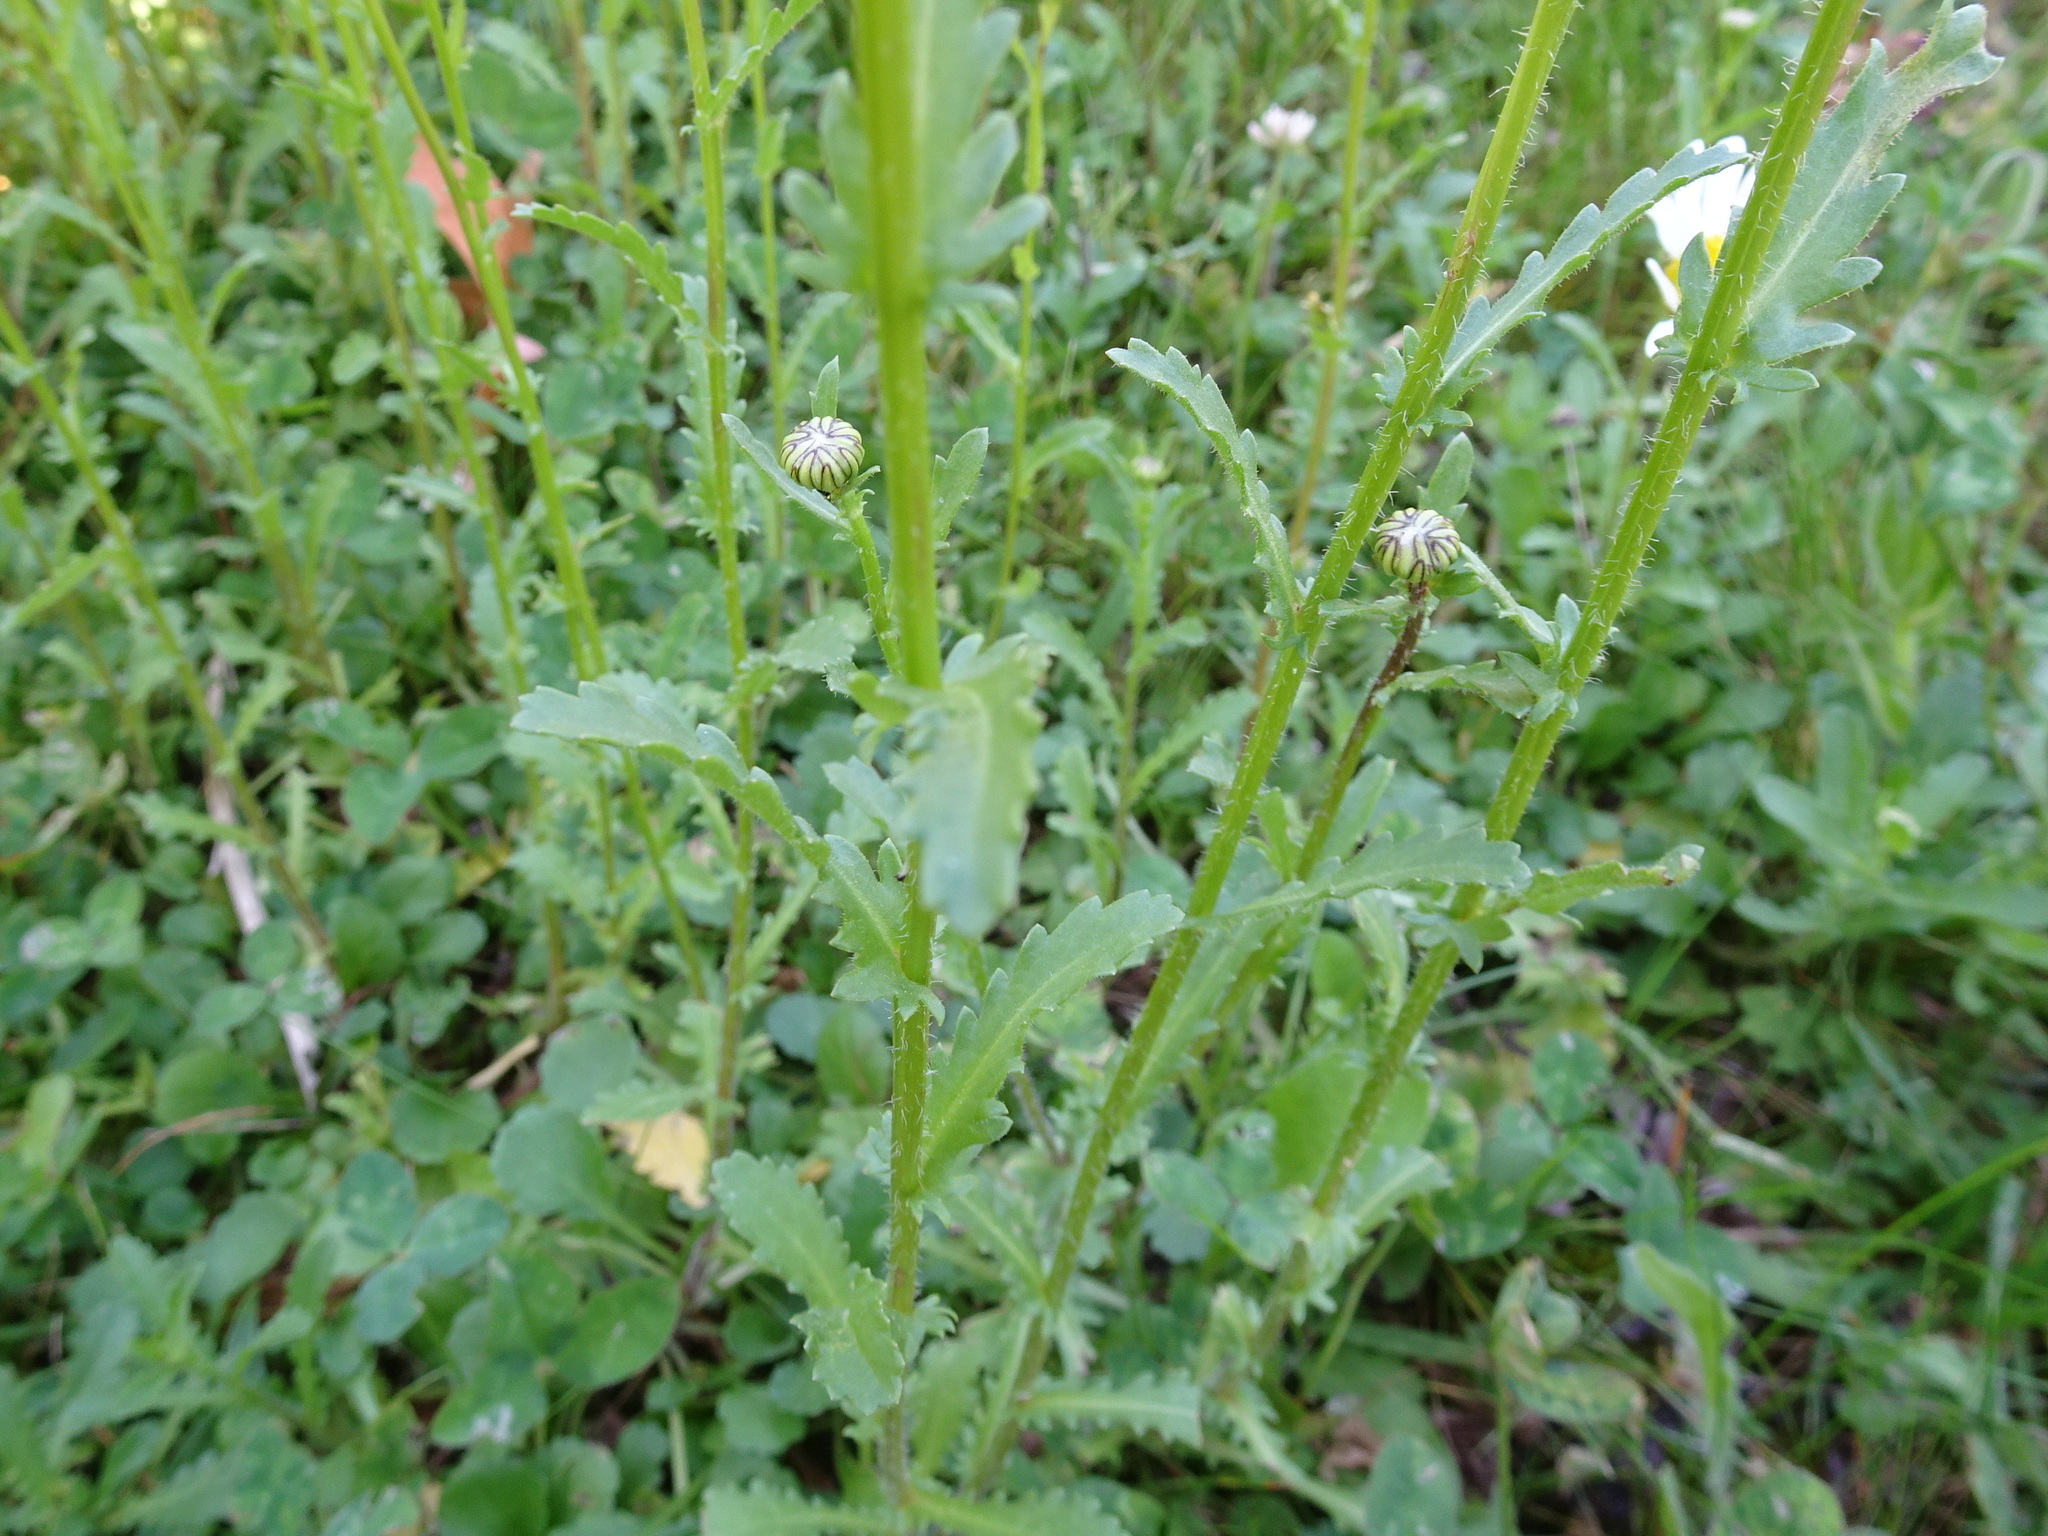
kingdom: Plantae
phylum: Tracheophyta
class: Magnoliopsida
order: Asterales
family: Asteraceae
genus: Leucanthemum
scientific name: Leucanthemum vulgare
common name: Oxeye daisy
